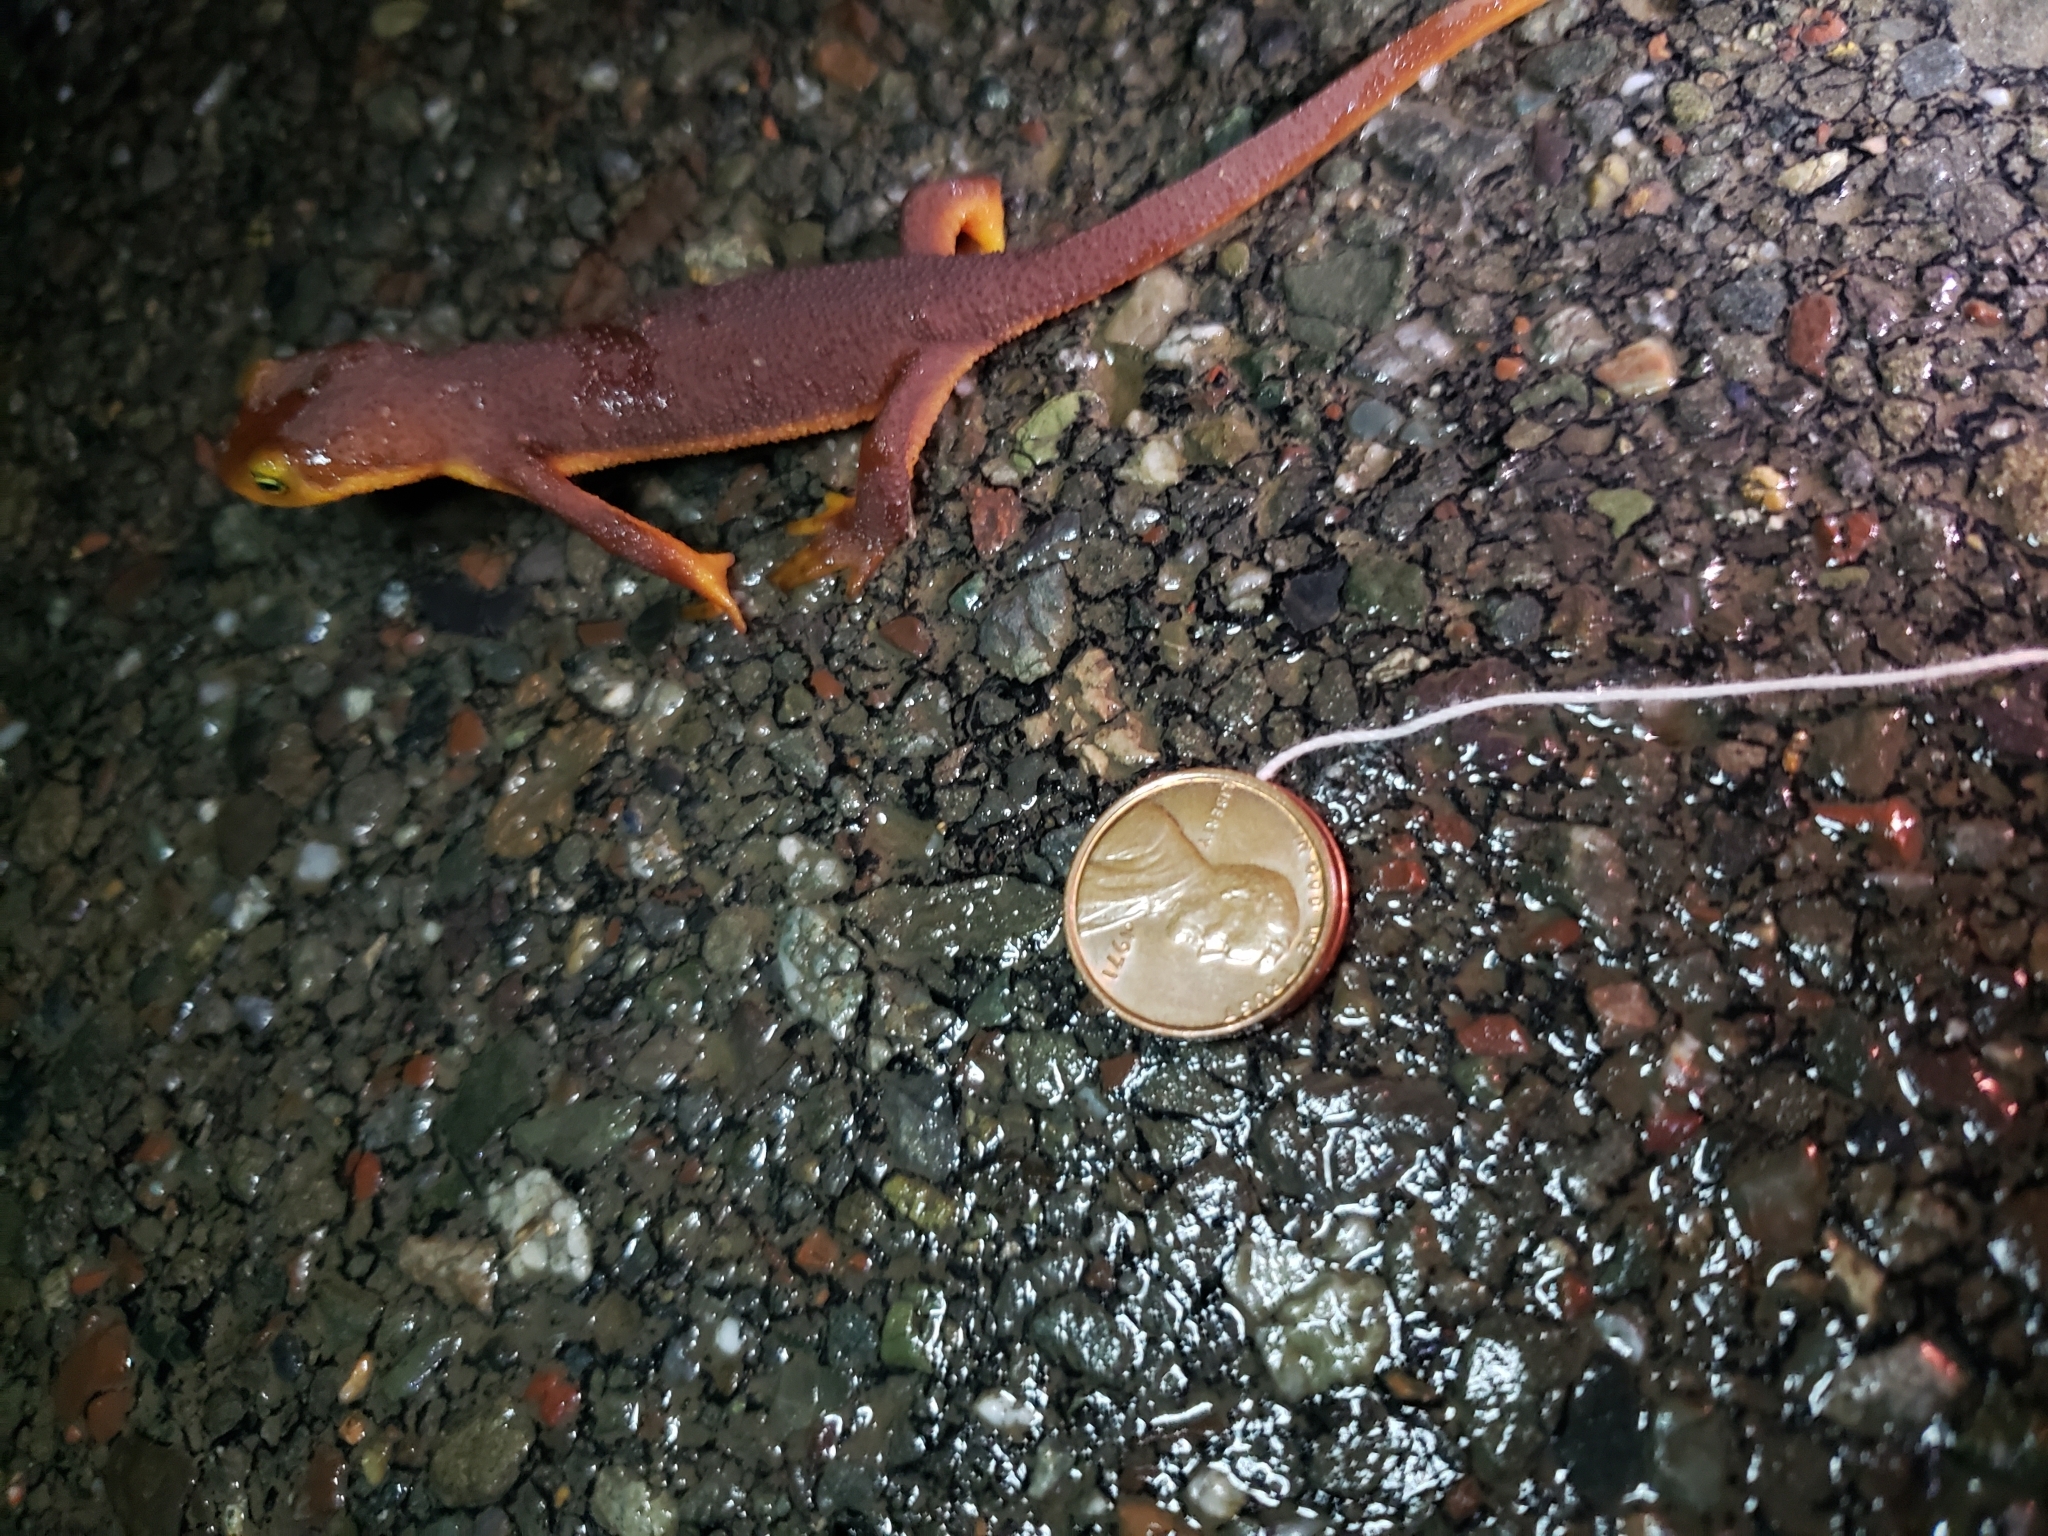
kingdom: Animalia
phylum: Chordata
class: Amphibia
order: Caudata
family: Salamandridae
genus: Taricha
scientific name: Taricha torosa
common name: California newt
